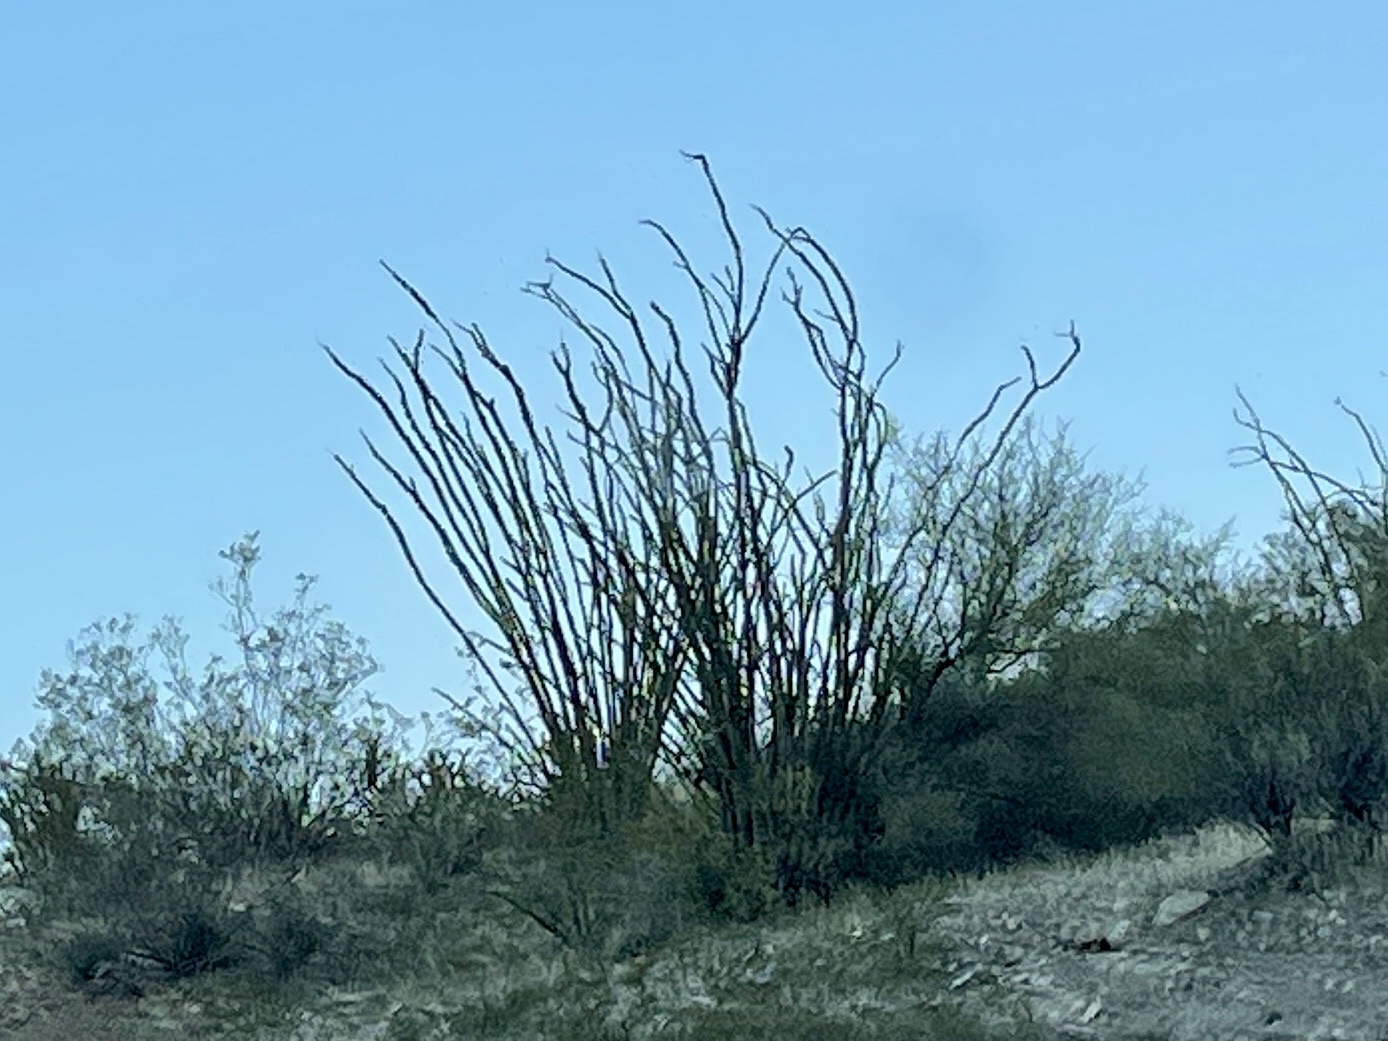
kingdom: Plantae
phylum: Tracheophyta
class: Magnoliopsida
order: Ericales
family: Fouquieriaceae
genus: Fouquieria
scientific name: Fouquieria splendens
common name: Vine-cactus
